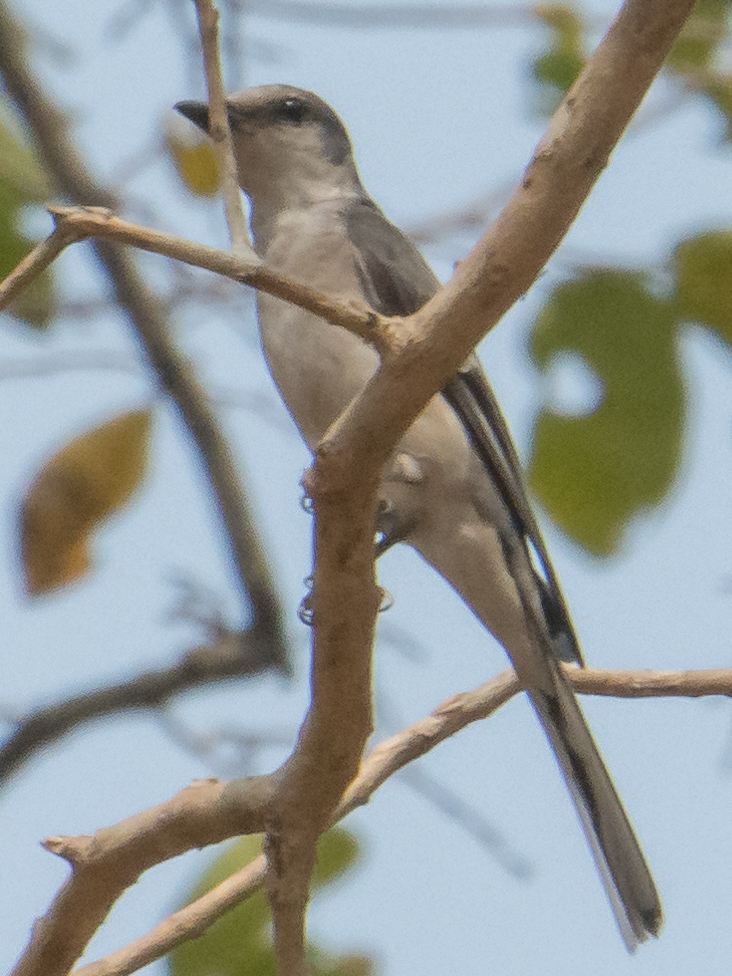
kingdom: Animalia
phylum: Chordata
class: Aves
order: Passeriformes
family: Campephagidae
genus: Pericrocotus
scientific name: Pericrocotus cantonensis
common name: Swinhoe's minivet
